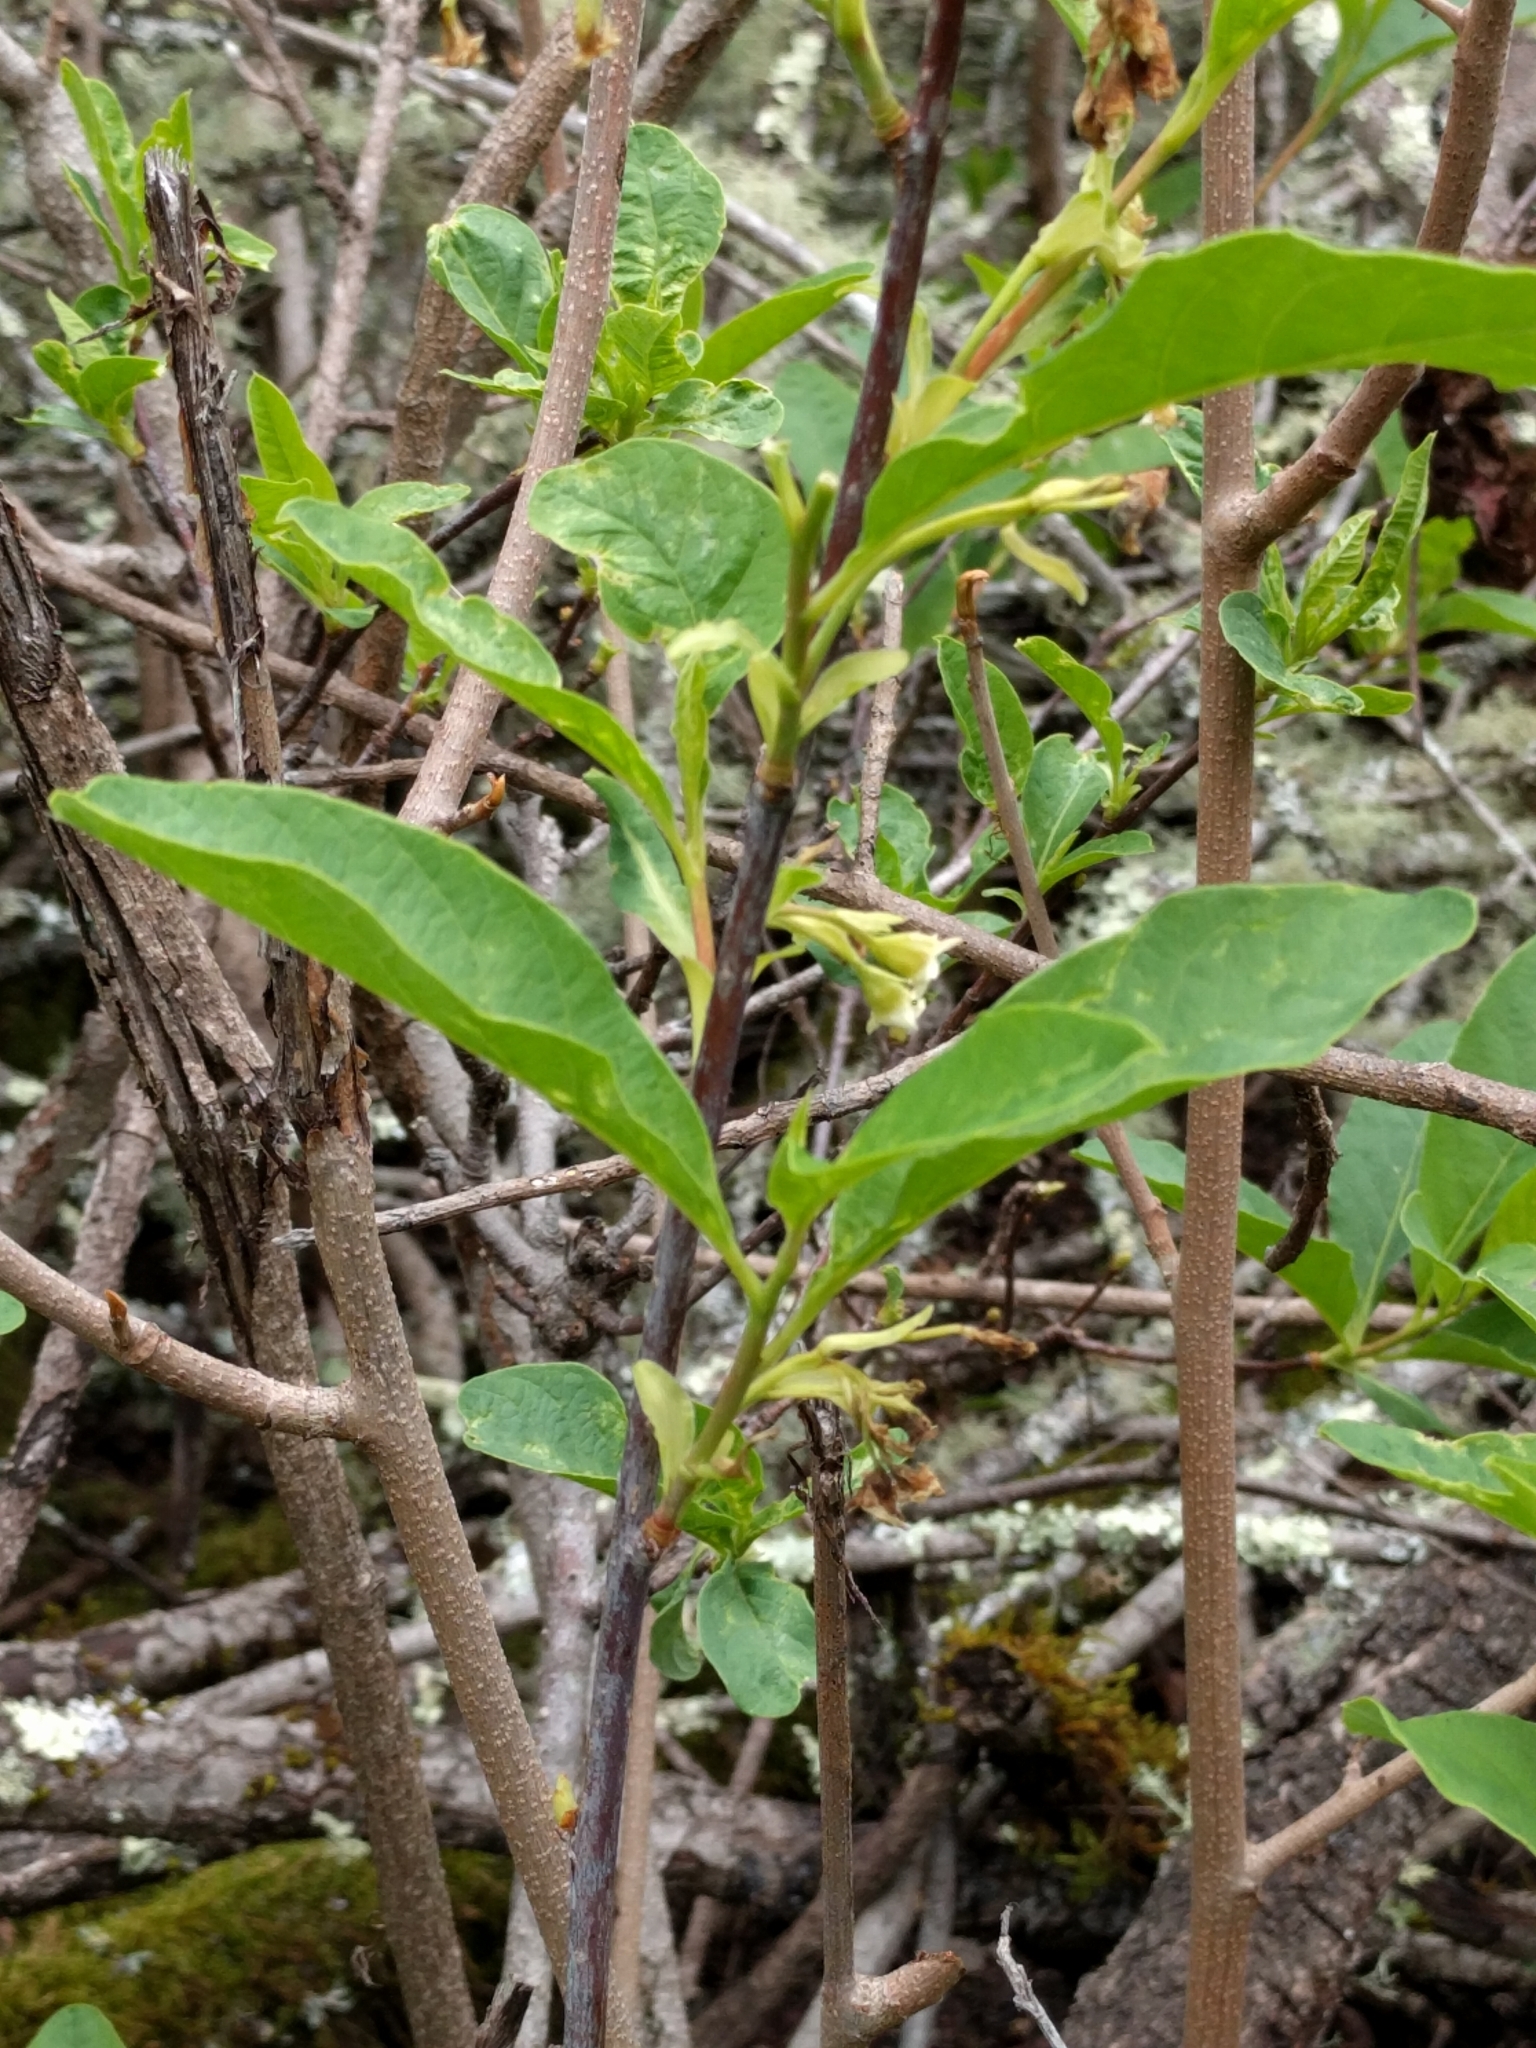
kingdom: Plantae
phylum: Tracheophyta
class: Magnoliopsida
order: Rosales
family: Rosaceae
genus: Oemleria
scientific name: Oemleria cerasiformis
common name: Osoberry
